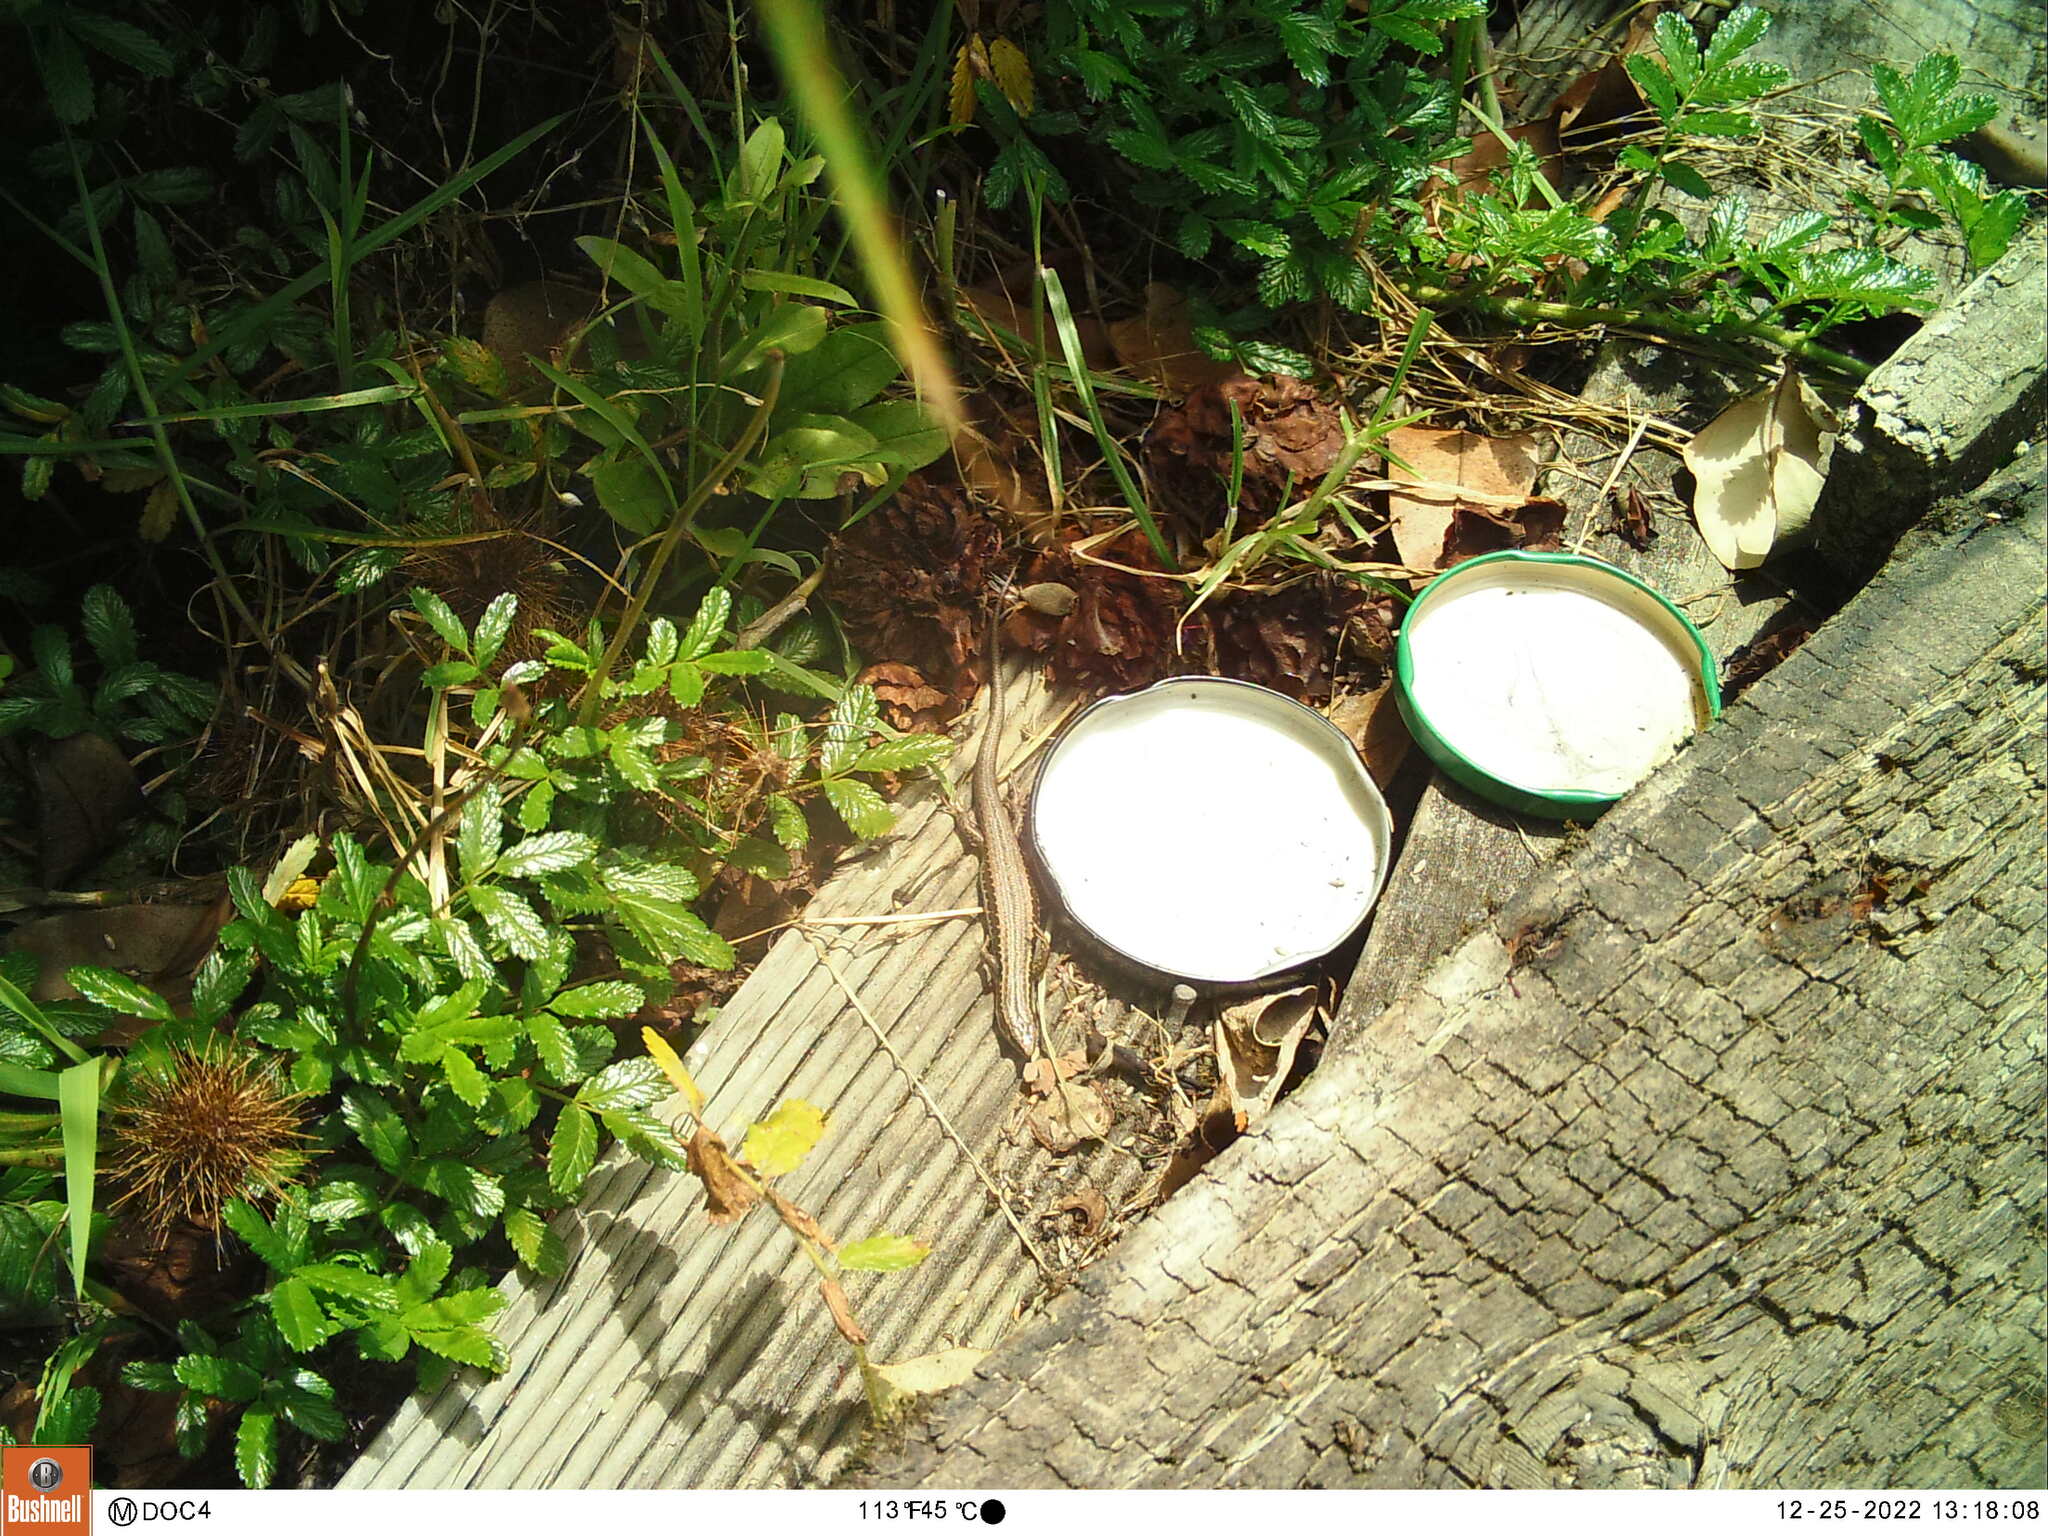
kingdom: Animalia
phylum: Chordata
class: Squamata
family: Scincidae
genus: Oligosoma
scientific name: Oligosoma polychroma
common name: Common new zealand skink
